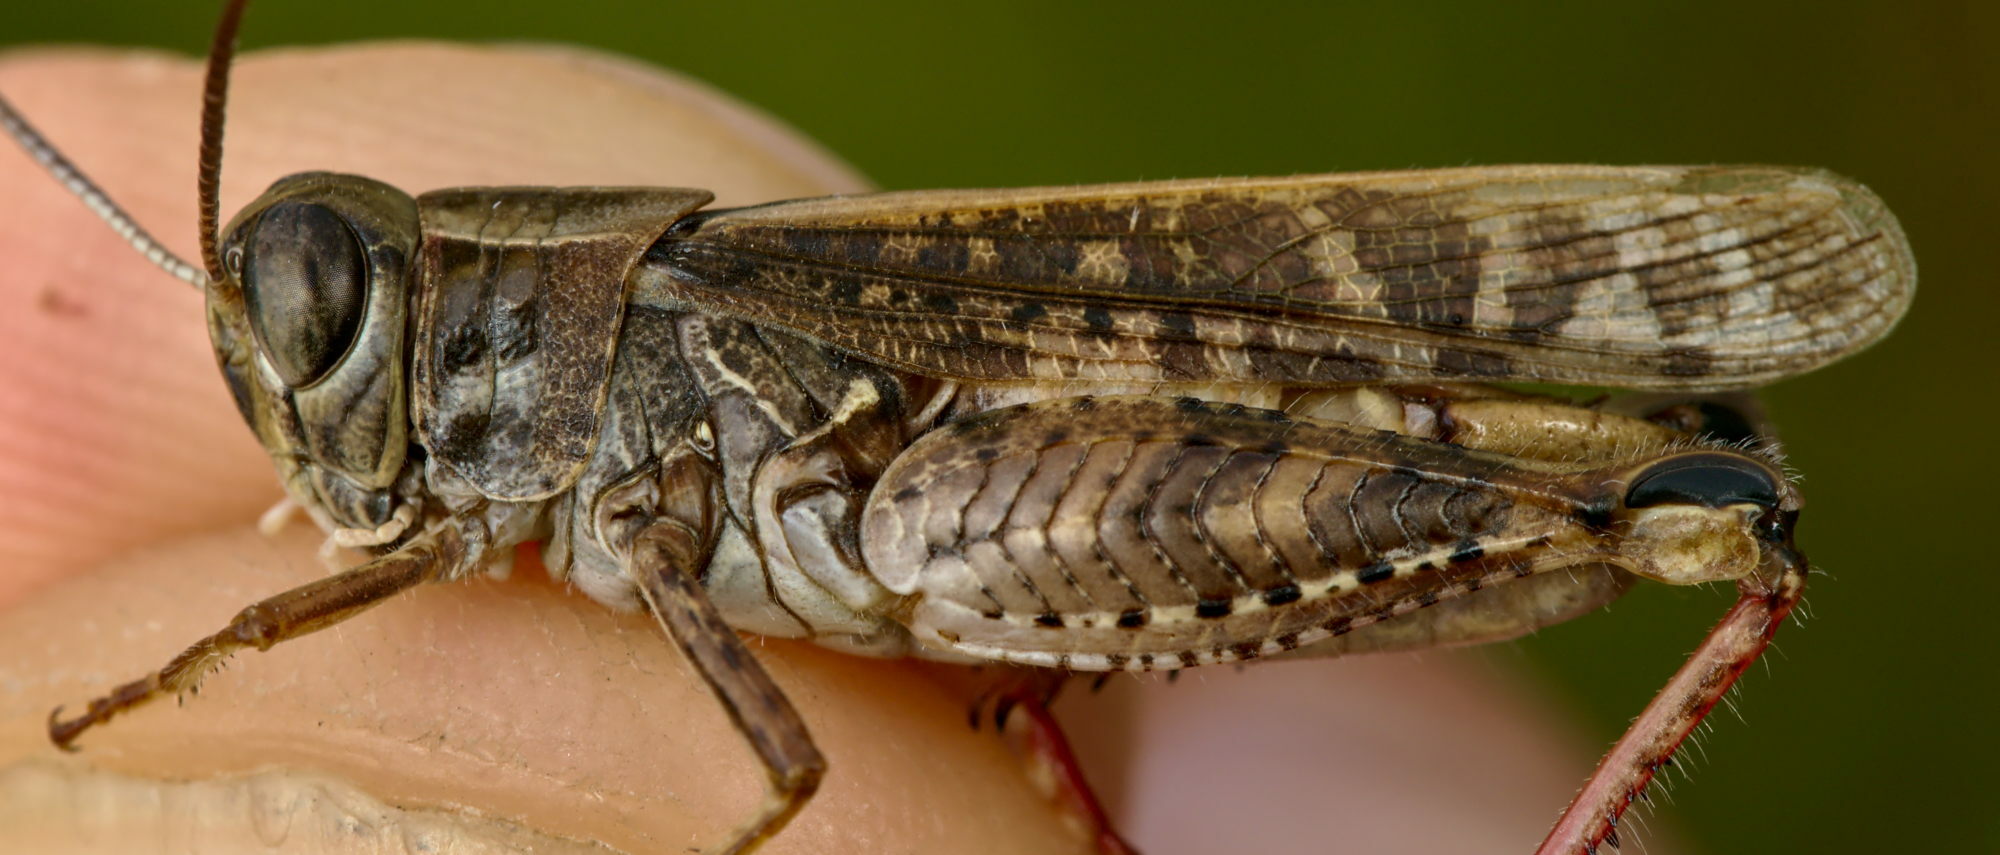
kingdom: Animalia
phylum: Arthropoda
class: Insecta
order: Orthoptera
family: Acrididae
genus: Calliptamus
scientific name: Calliptamus italicus
